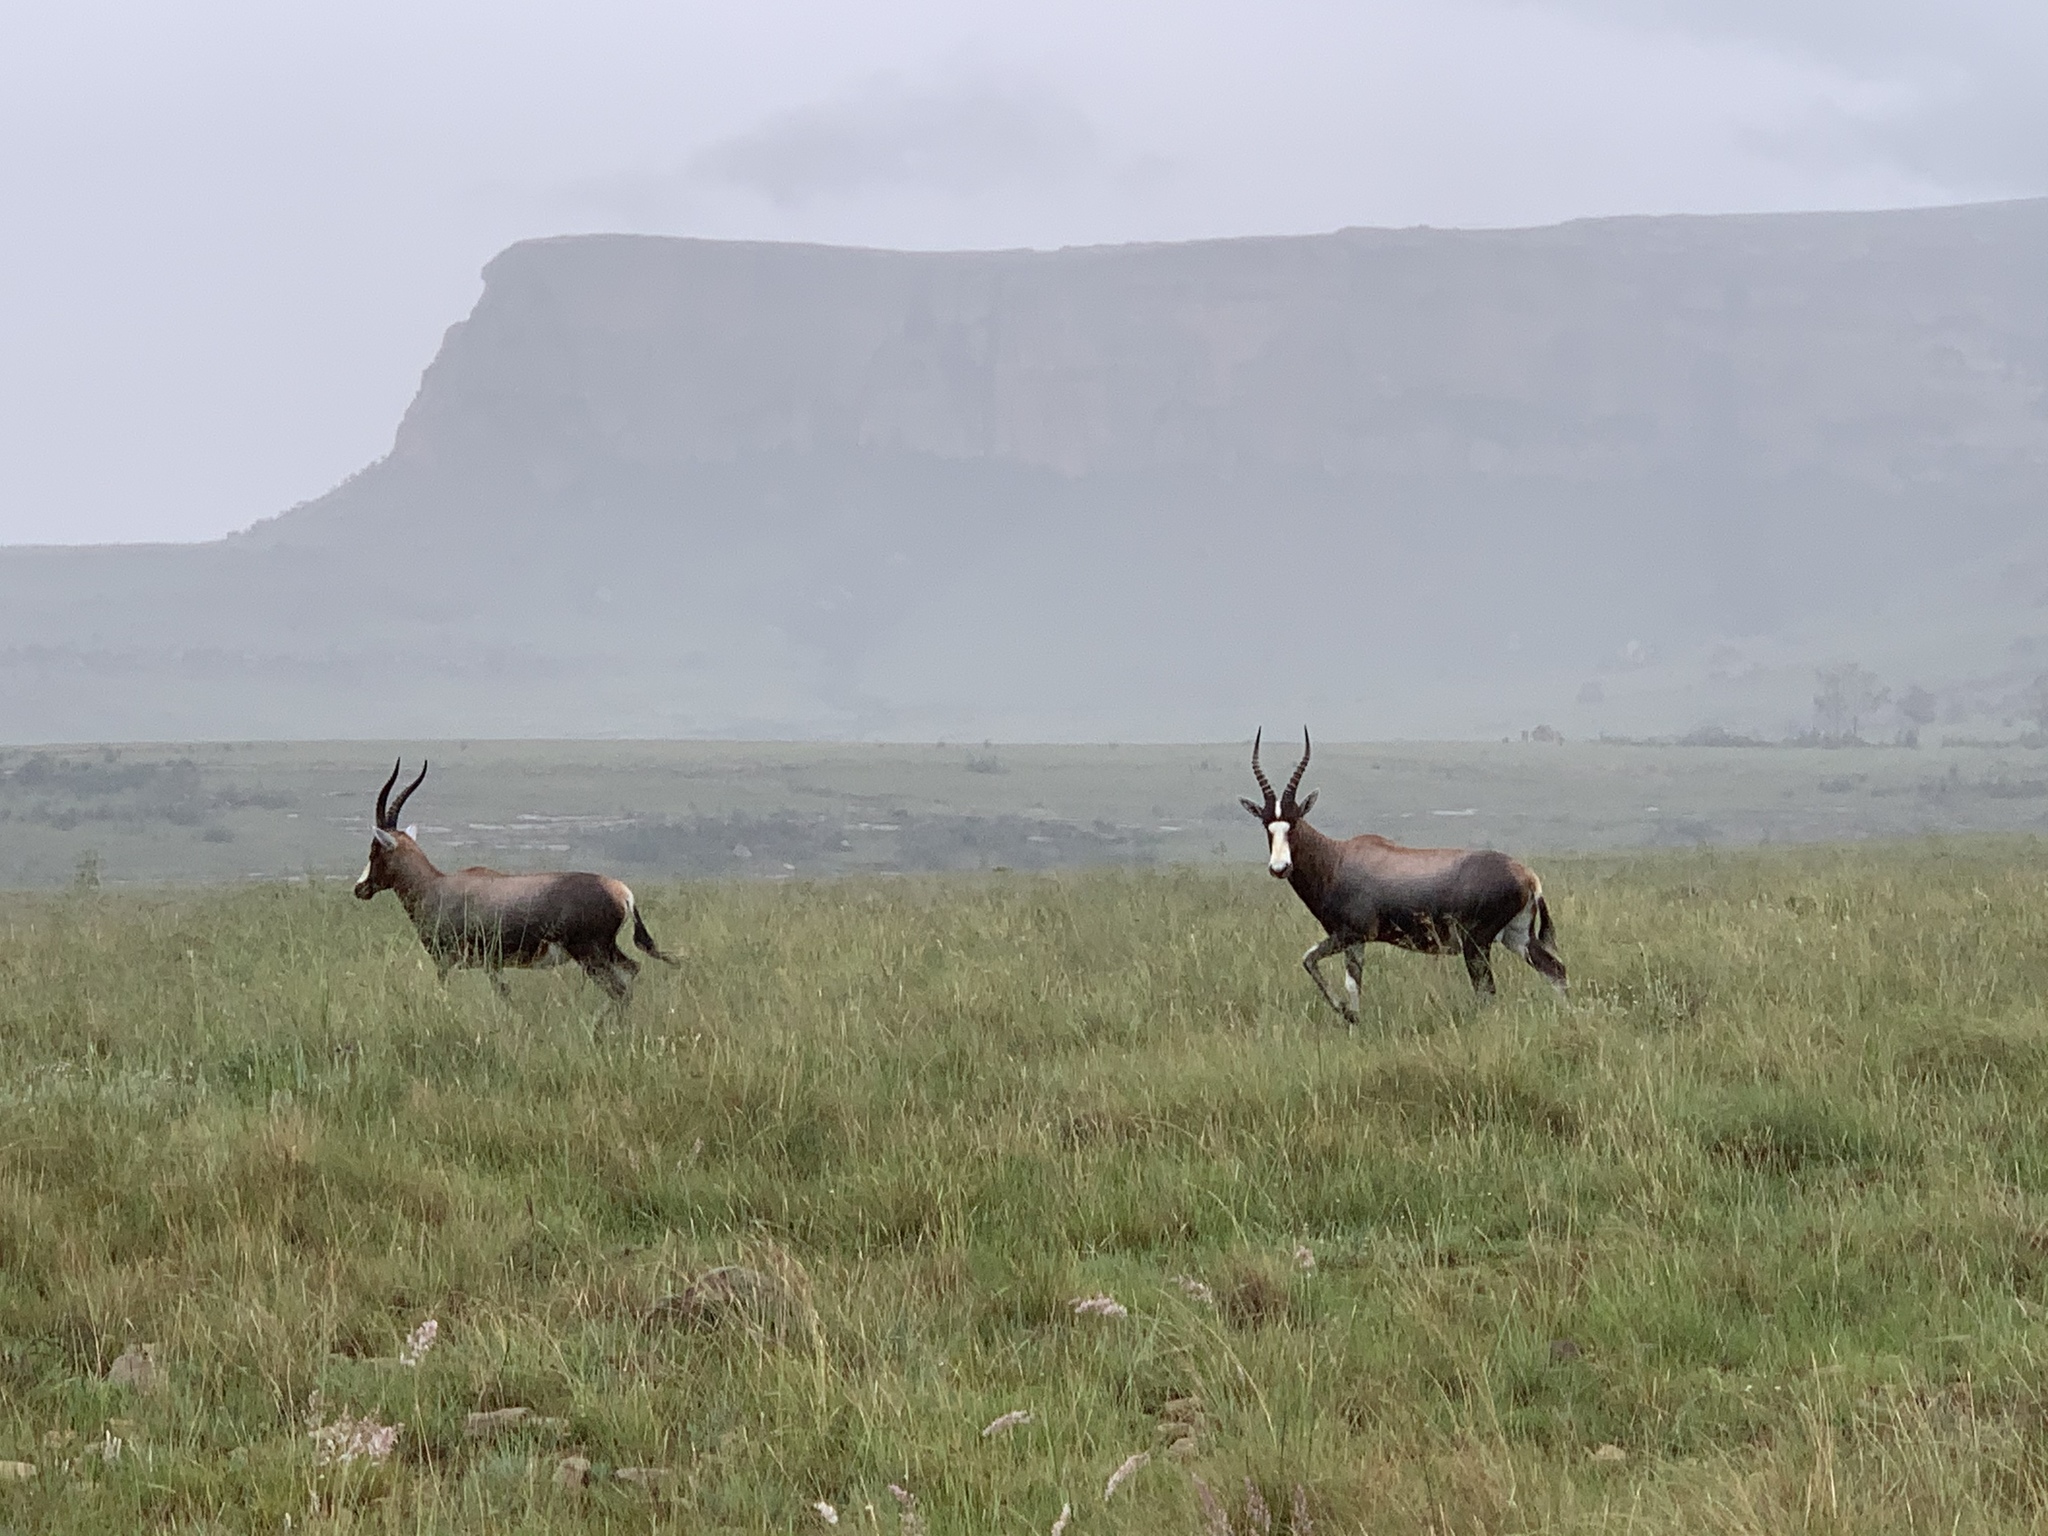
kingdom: Animalia
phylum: Chordata
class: Mammalia
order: Artiodactyla
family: Bovidae
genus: Damaliscus
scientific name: Damaliscus pygargus
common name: Bontebok
